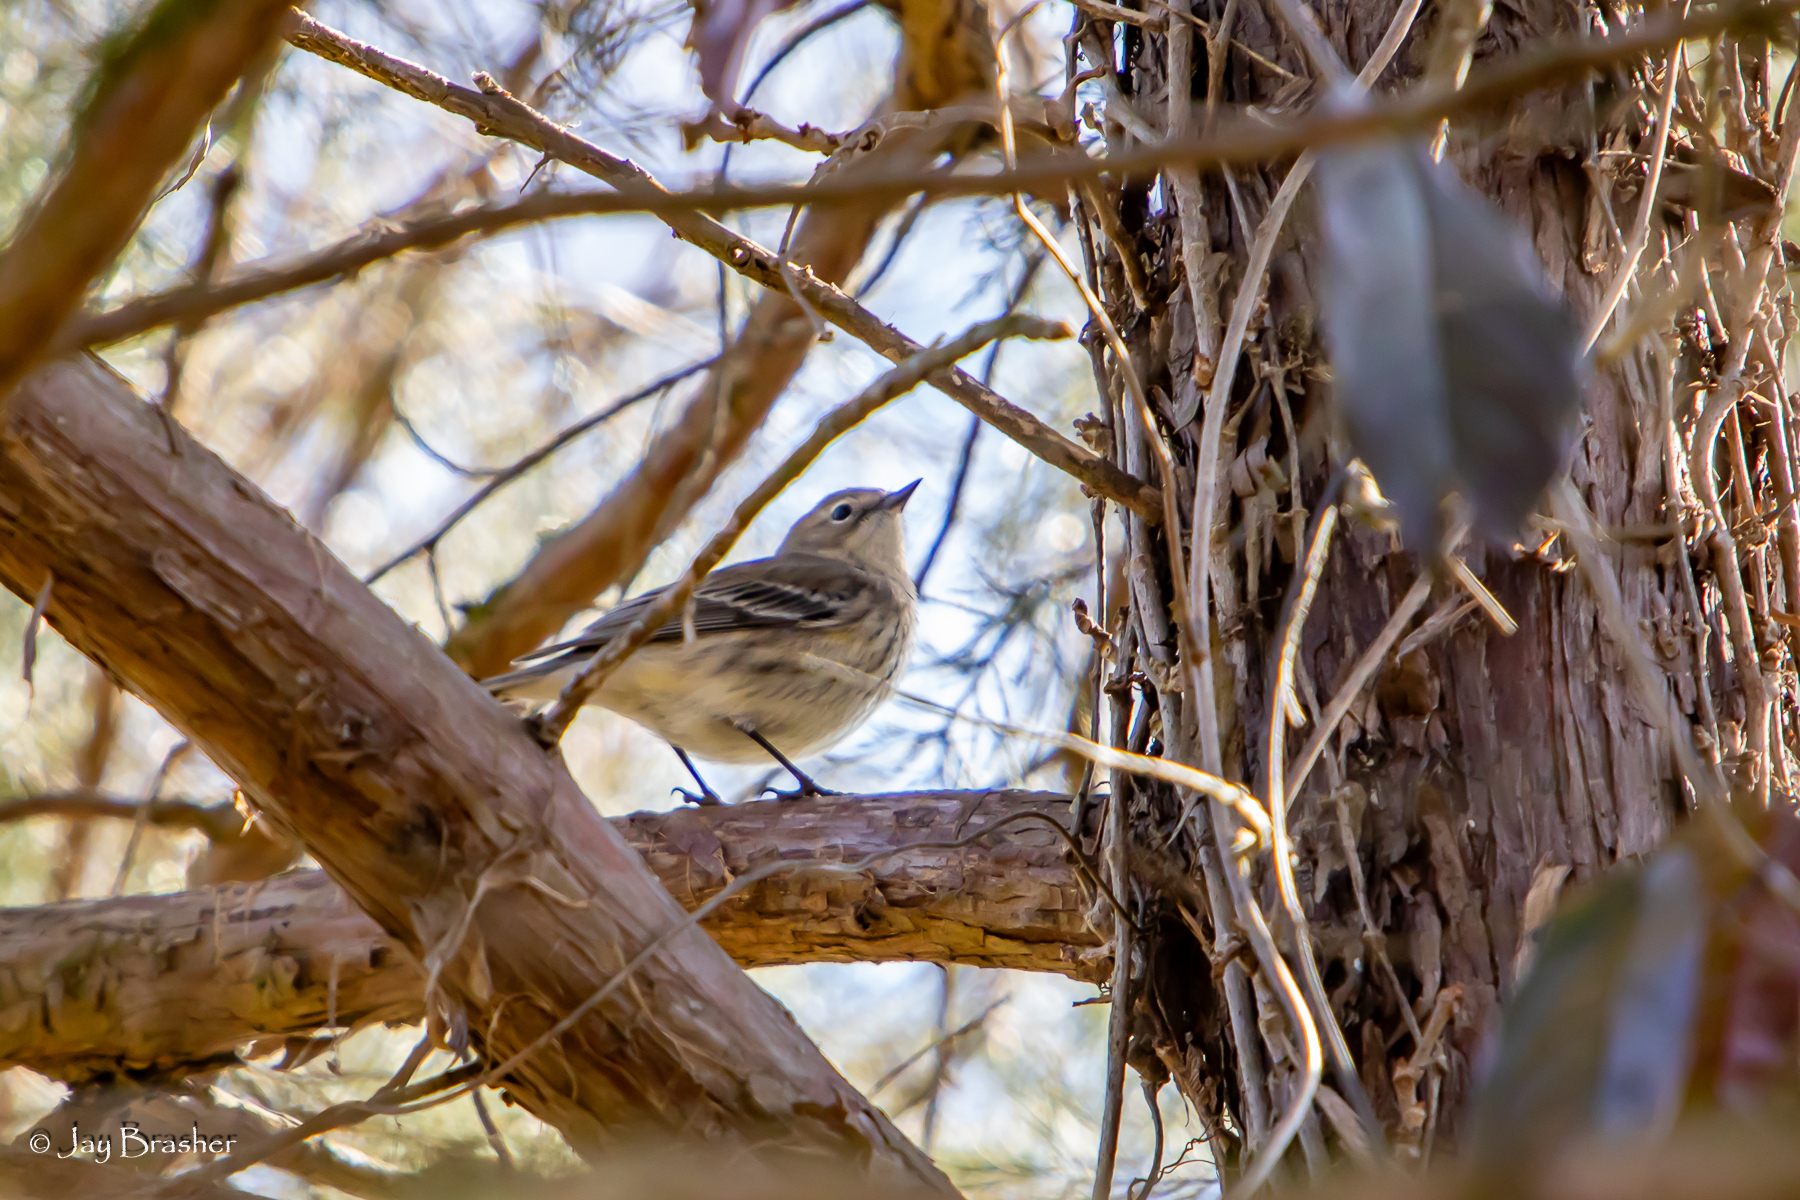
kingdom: Animalia
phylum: Chordata
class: Aves
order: Passeriformes
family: Parulidae
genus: Setophaga
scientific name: Setophaga coronata
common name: Myrtle warbler
